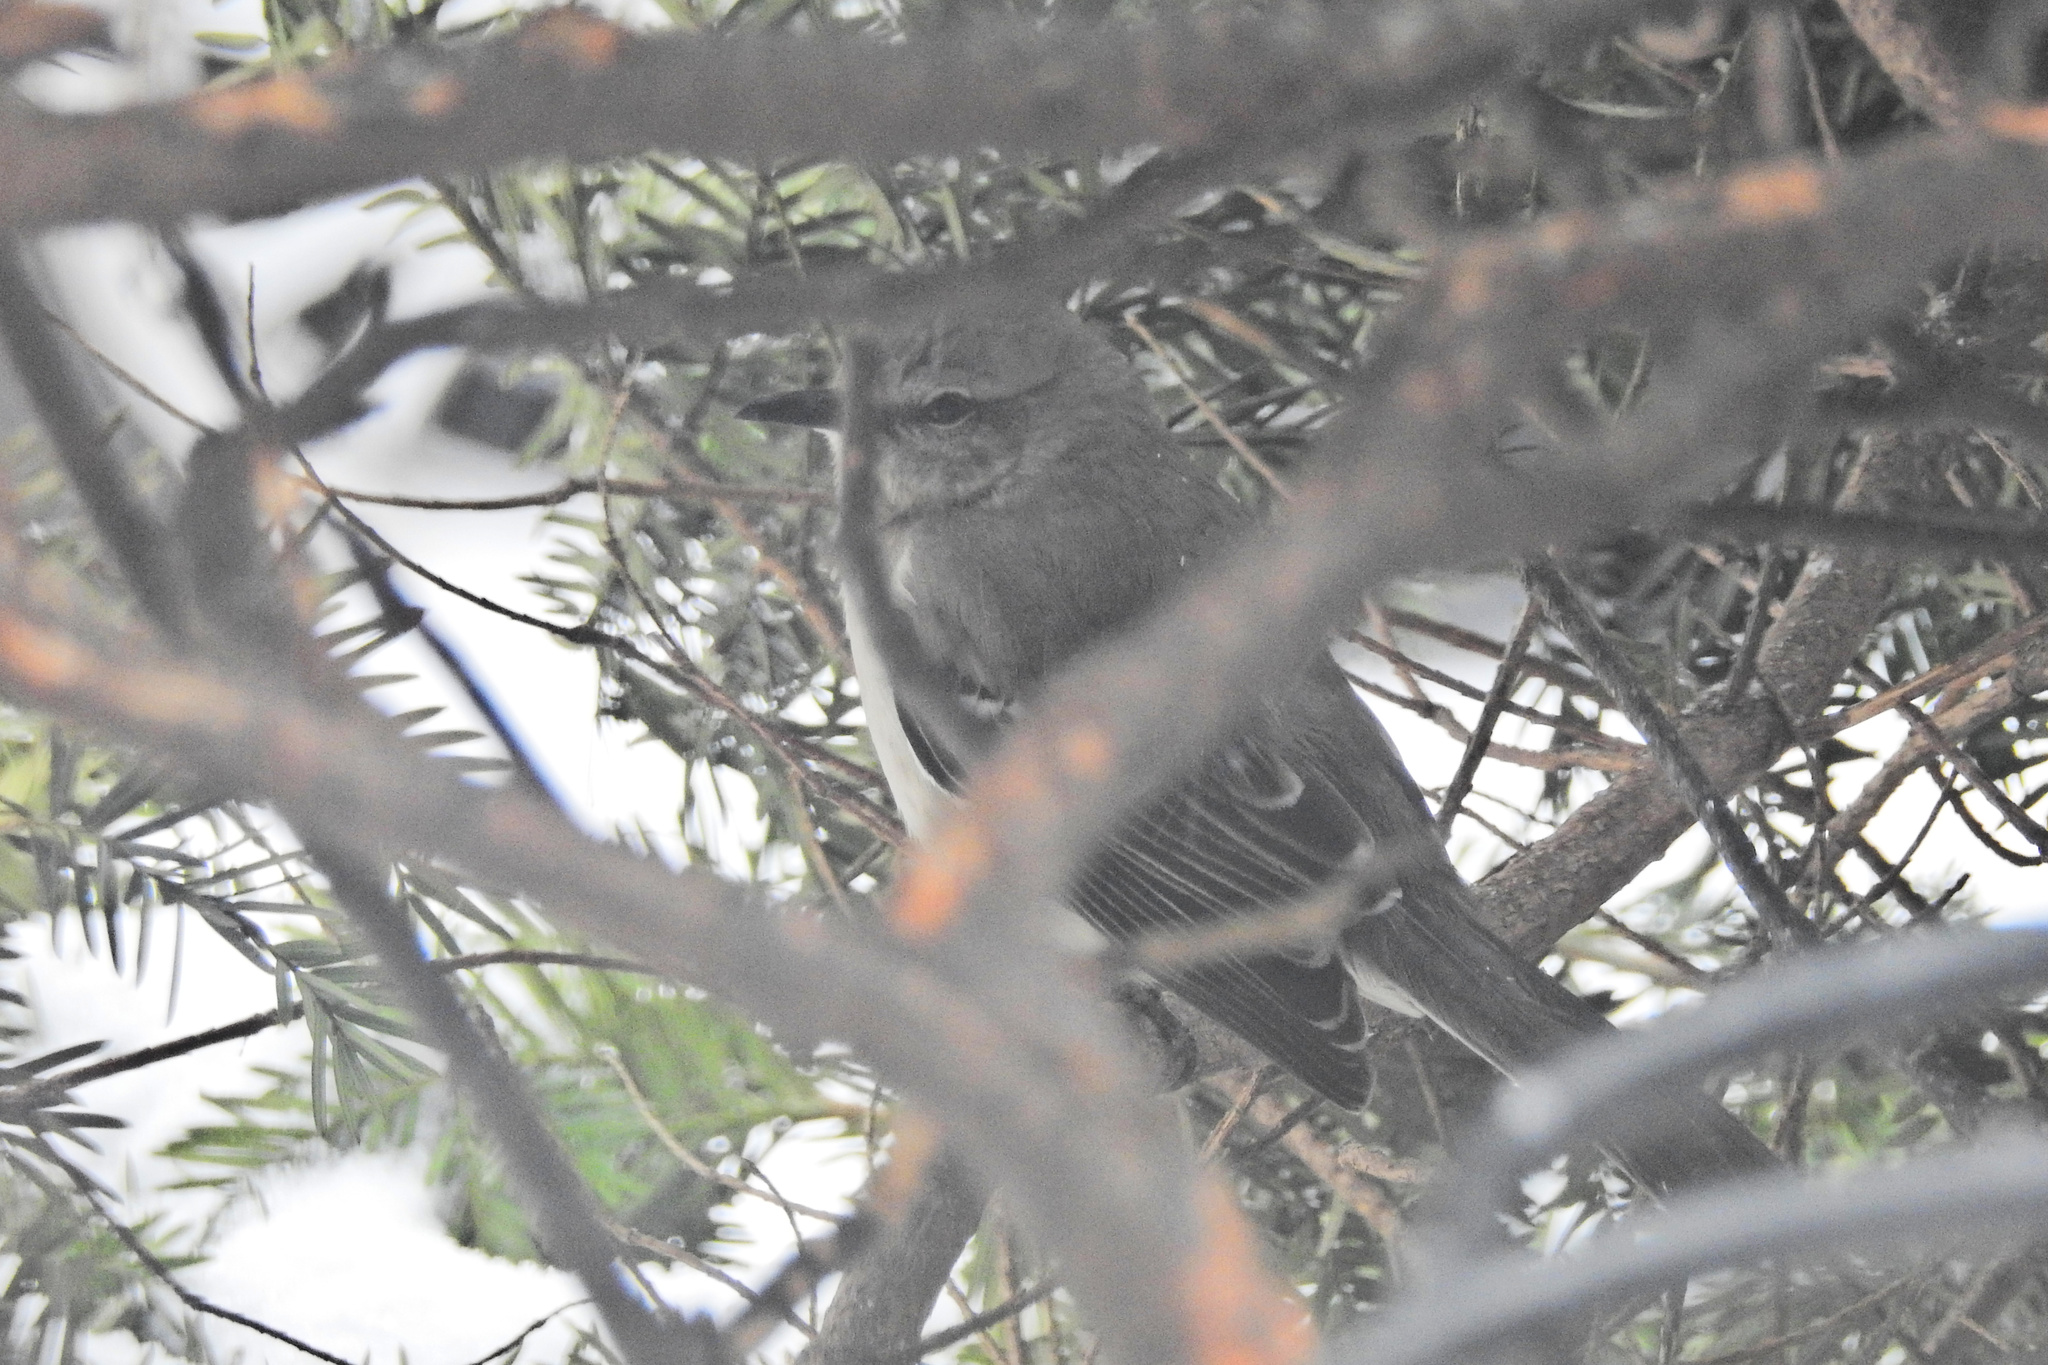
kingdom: Animalia
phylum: Chordata
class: Aves
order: Passeriformes
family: Mimidae
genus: Mimus
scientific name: Mimus polyglottos
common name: Northern mockingbird
